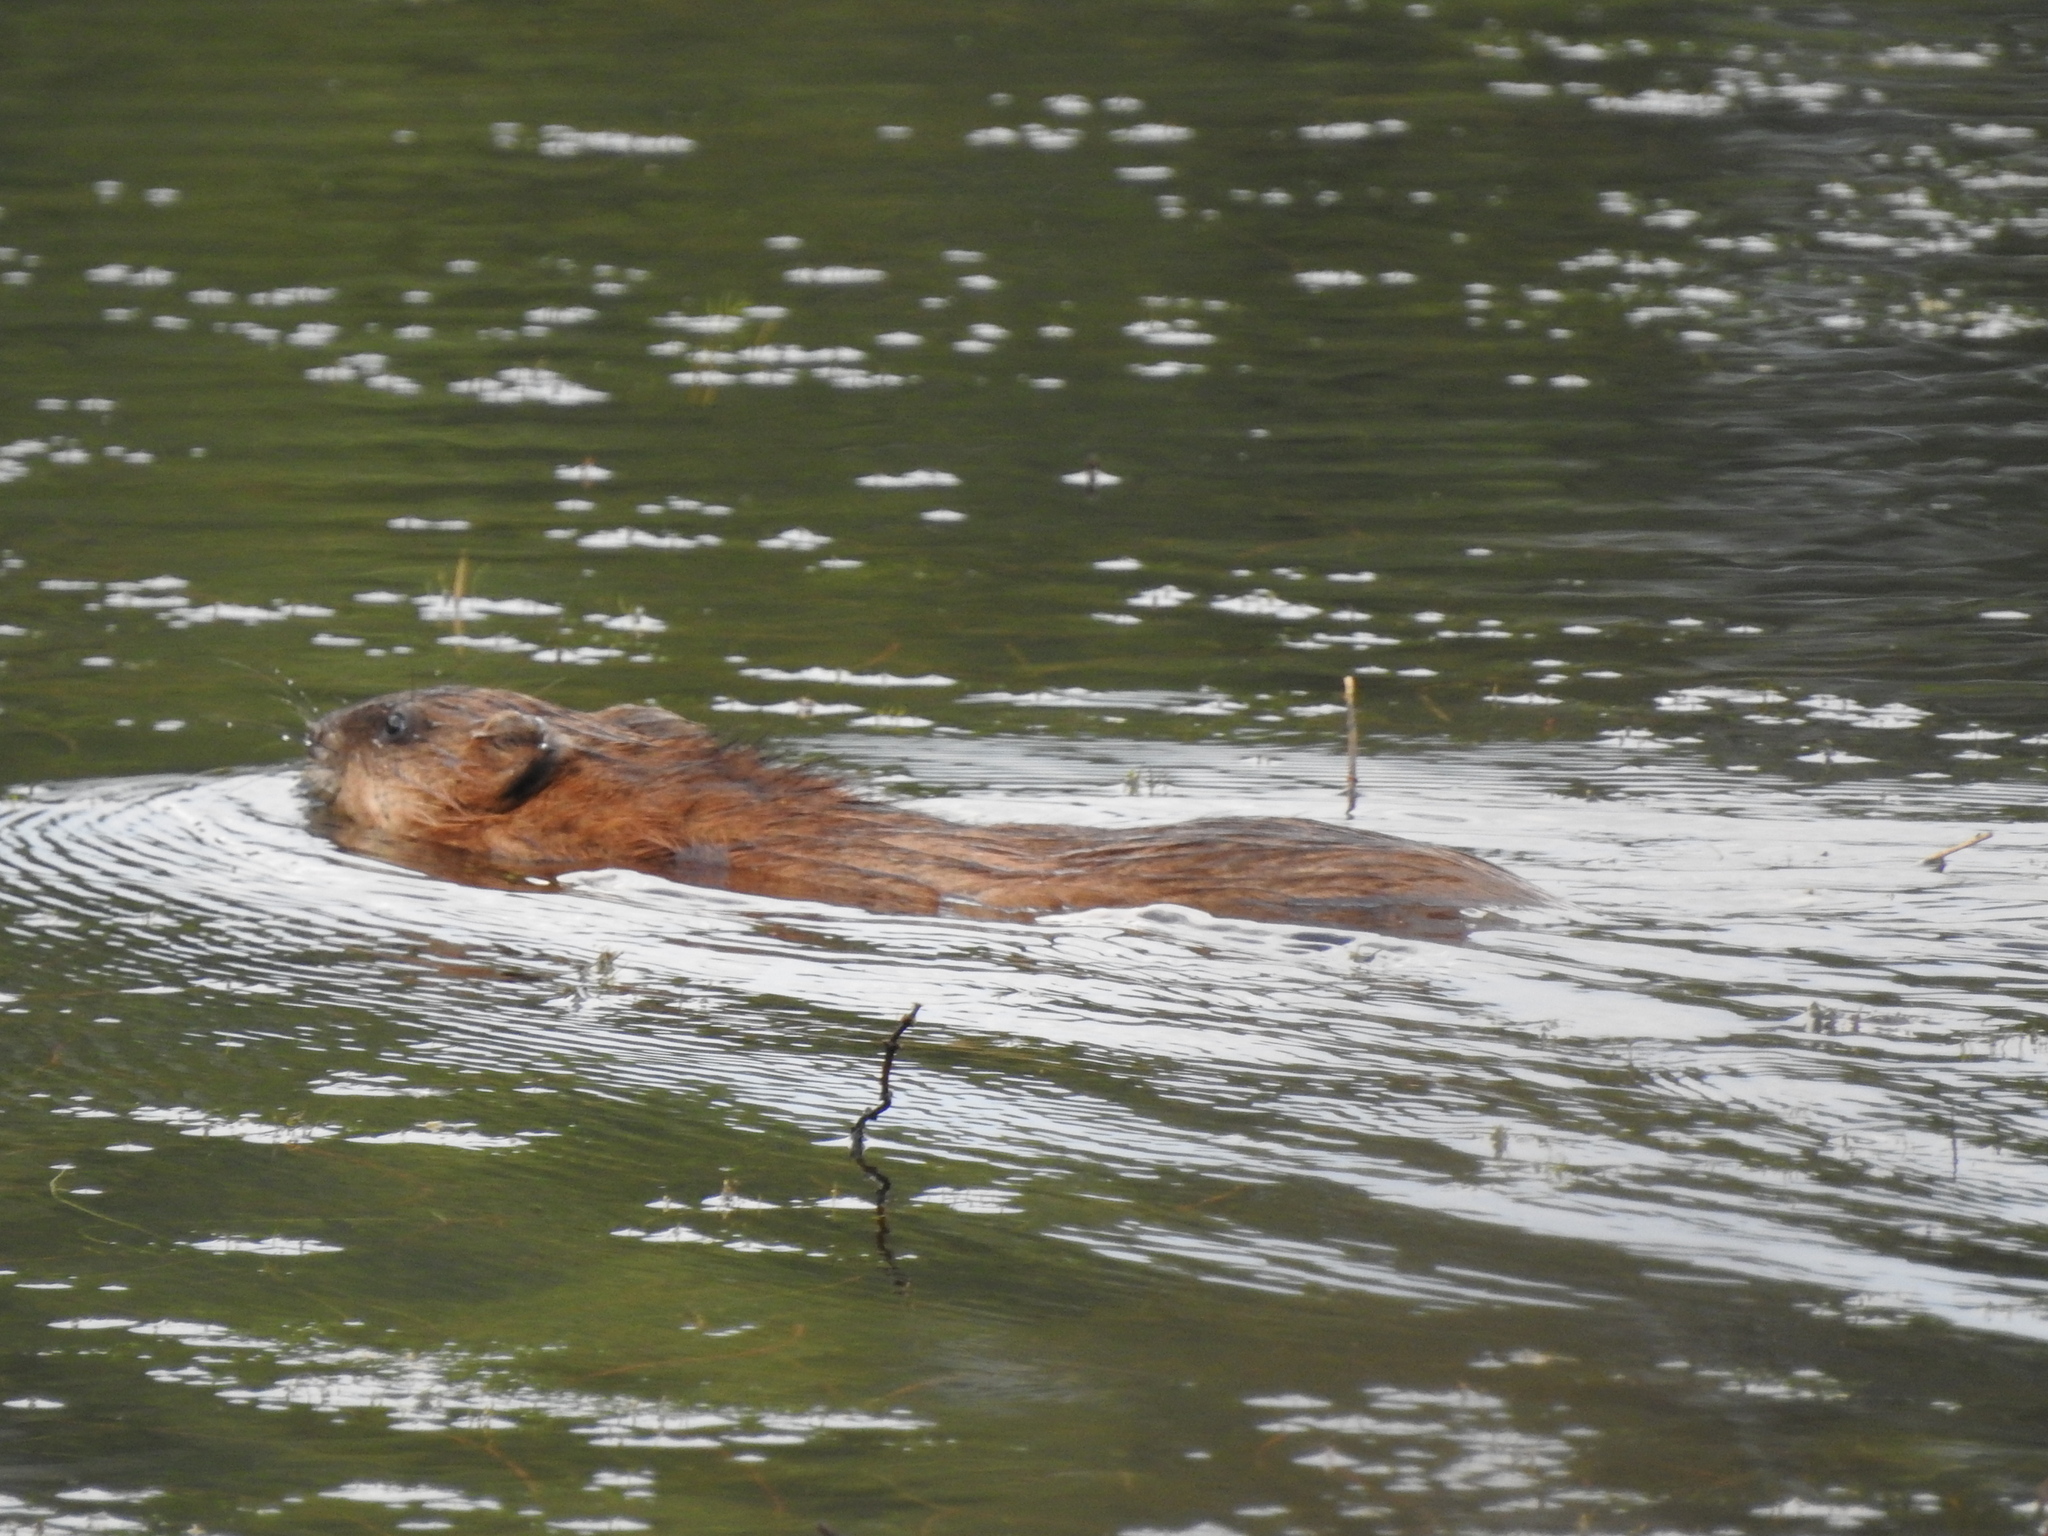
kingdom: Animalia
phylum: Chordata
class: Mammalia
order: Rodentia
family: Cricetidae
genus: Ondatra
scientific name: Ondatra zibethicus
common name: Muskrat
